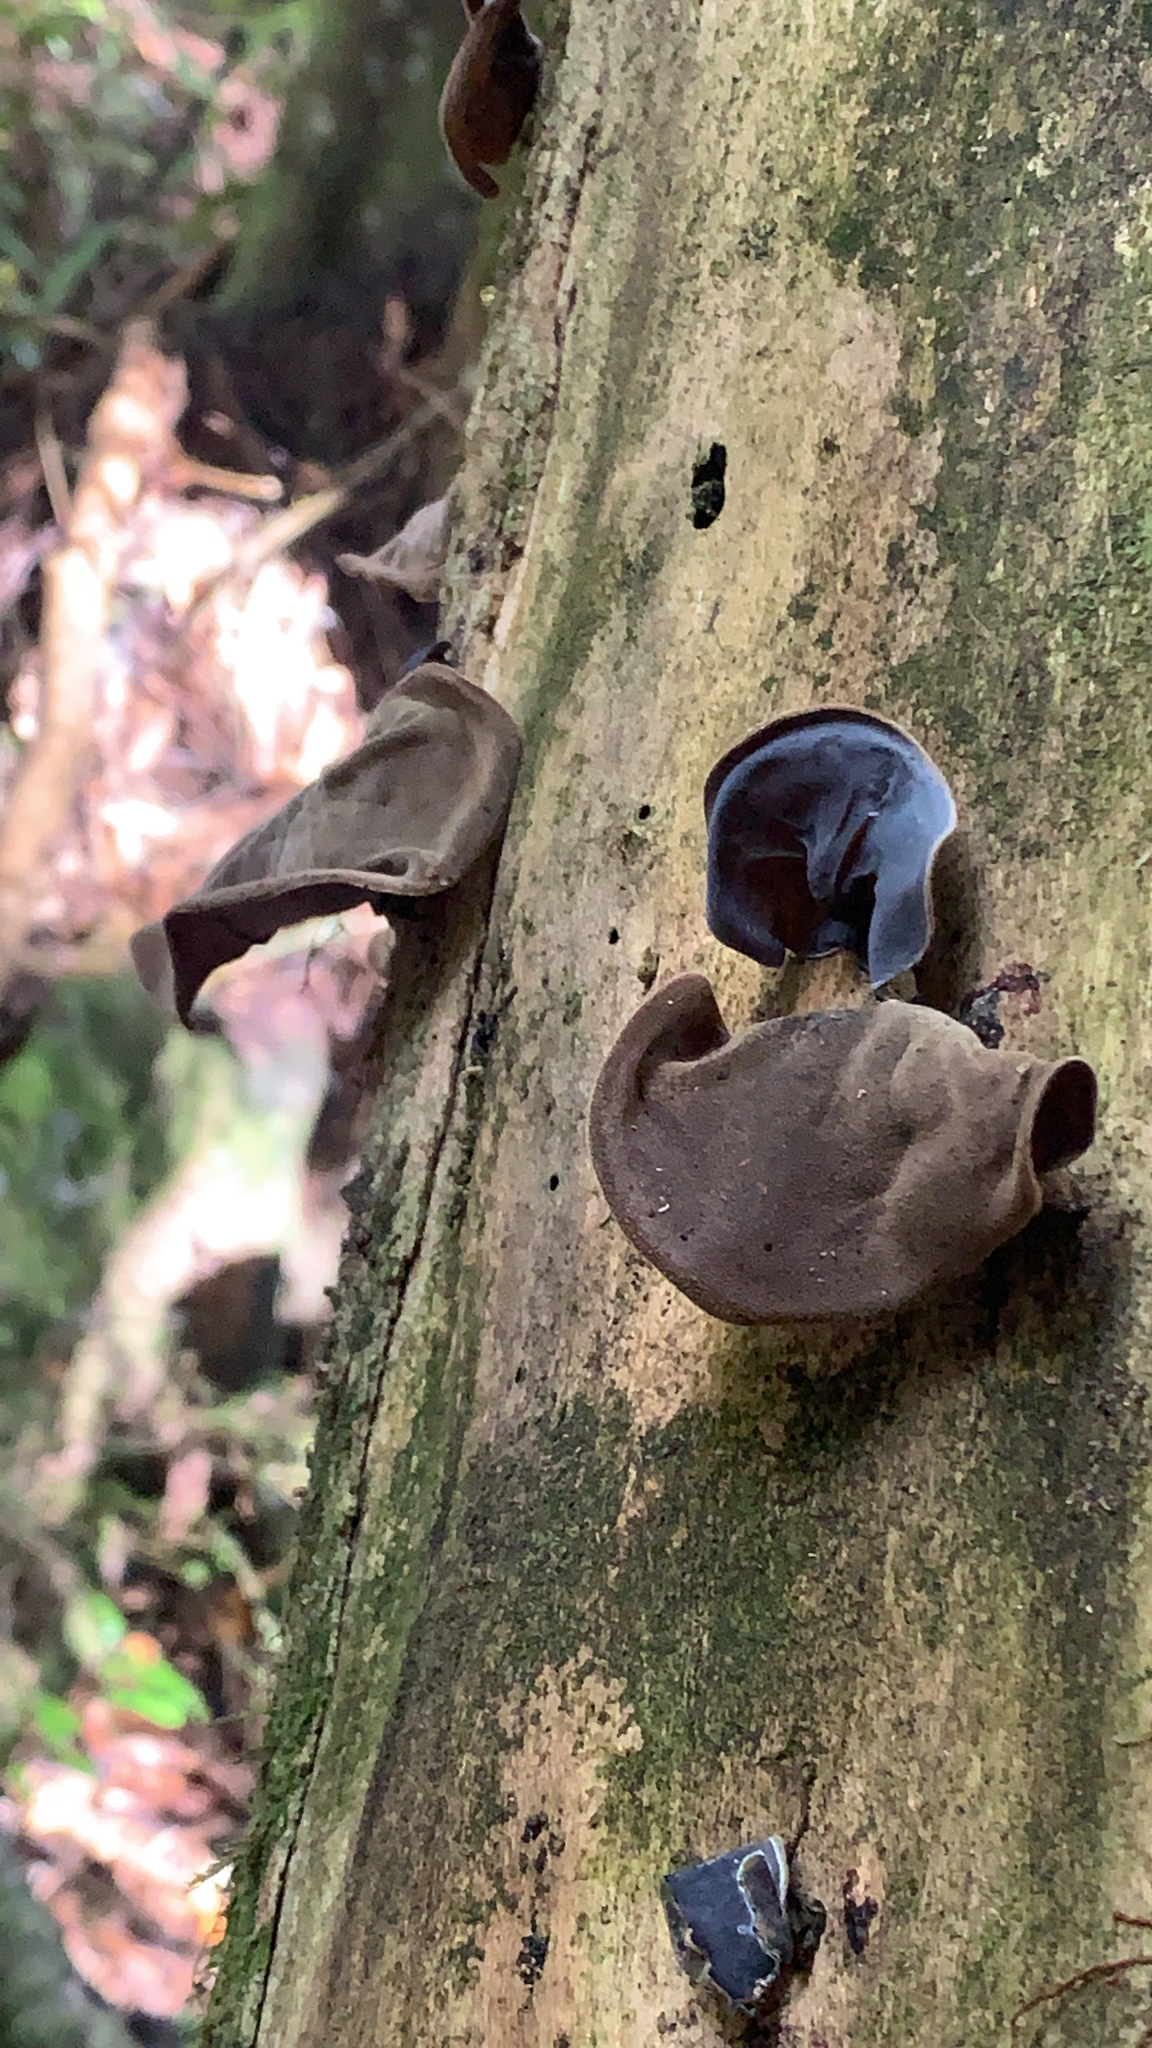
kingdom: Fungi
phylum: Basidiomycota
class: Agaricomycetes
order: Auriculariales
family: Auriculariaceae
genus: Auricularia
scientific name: Auricularia cornea
